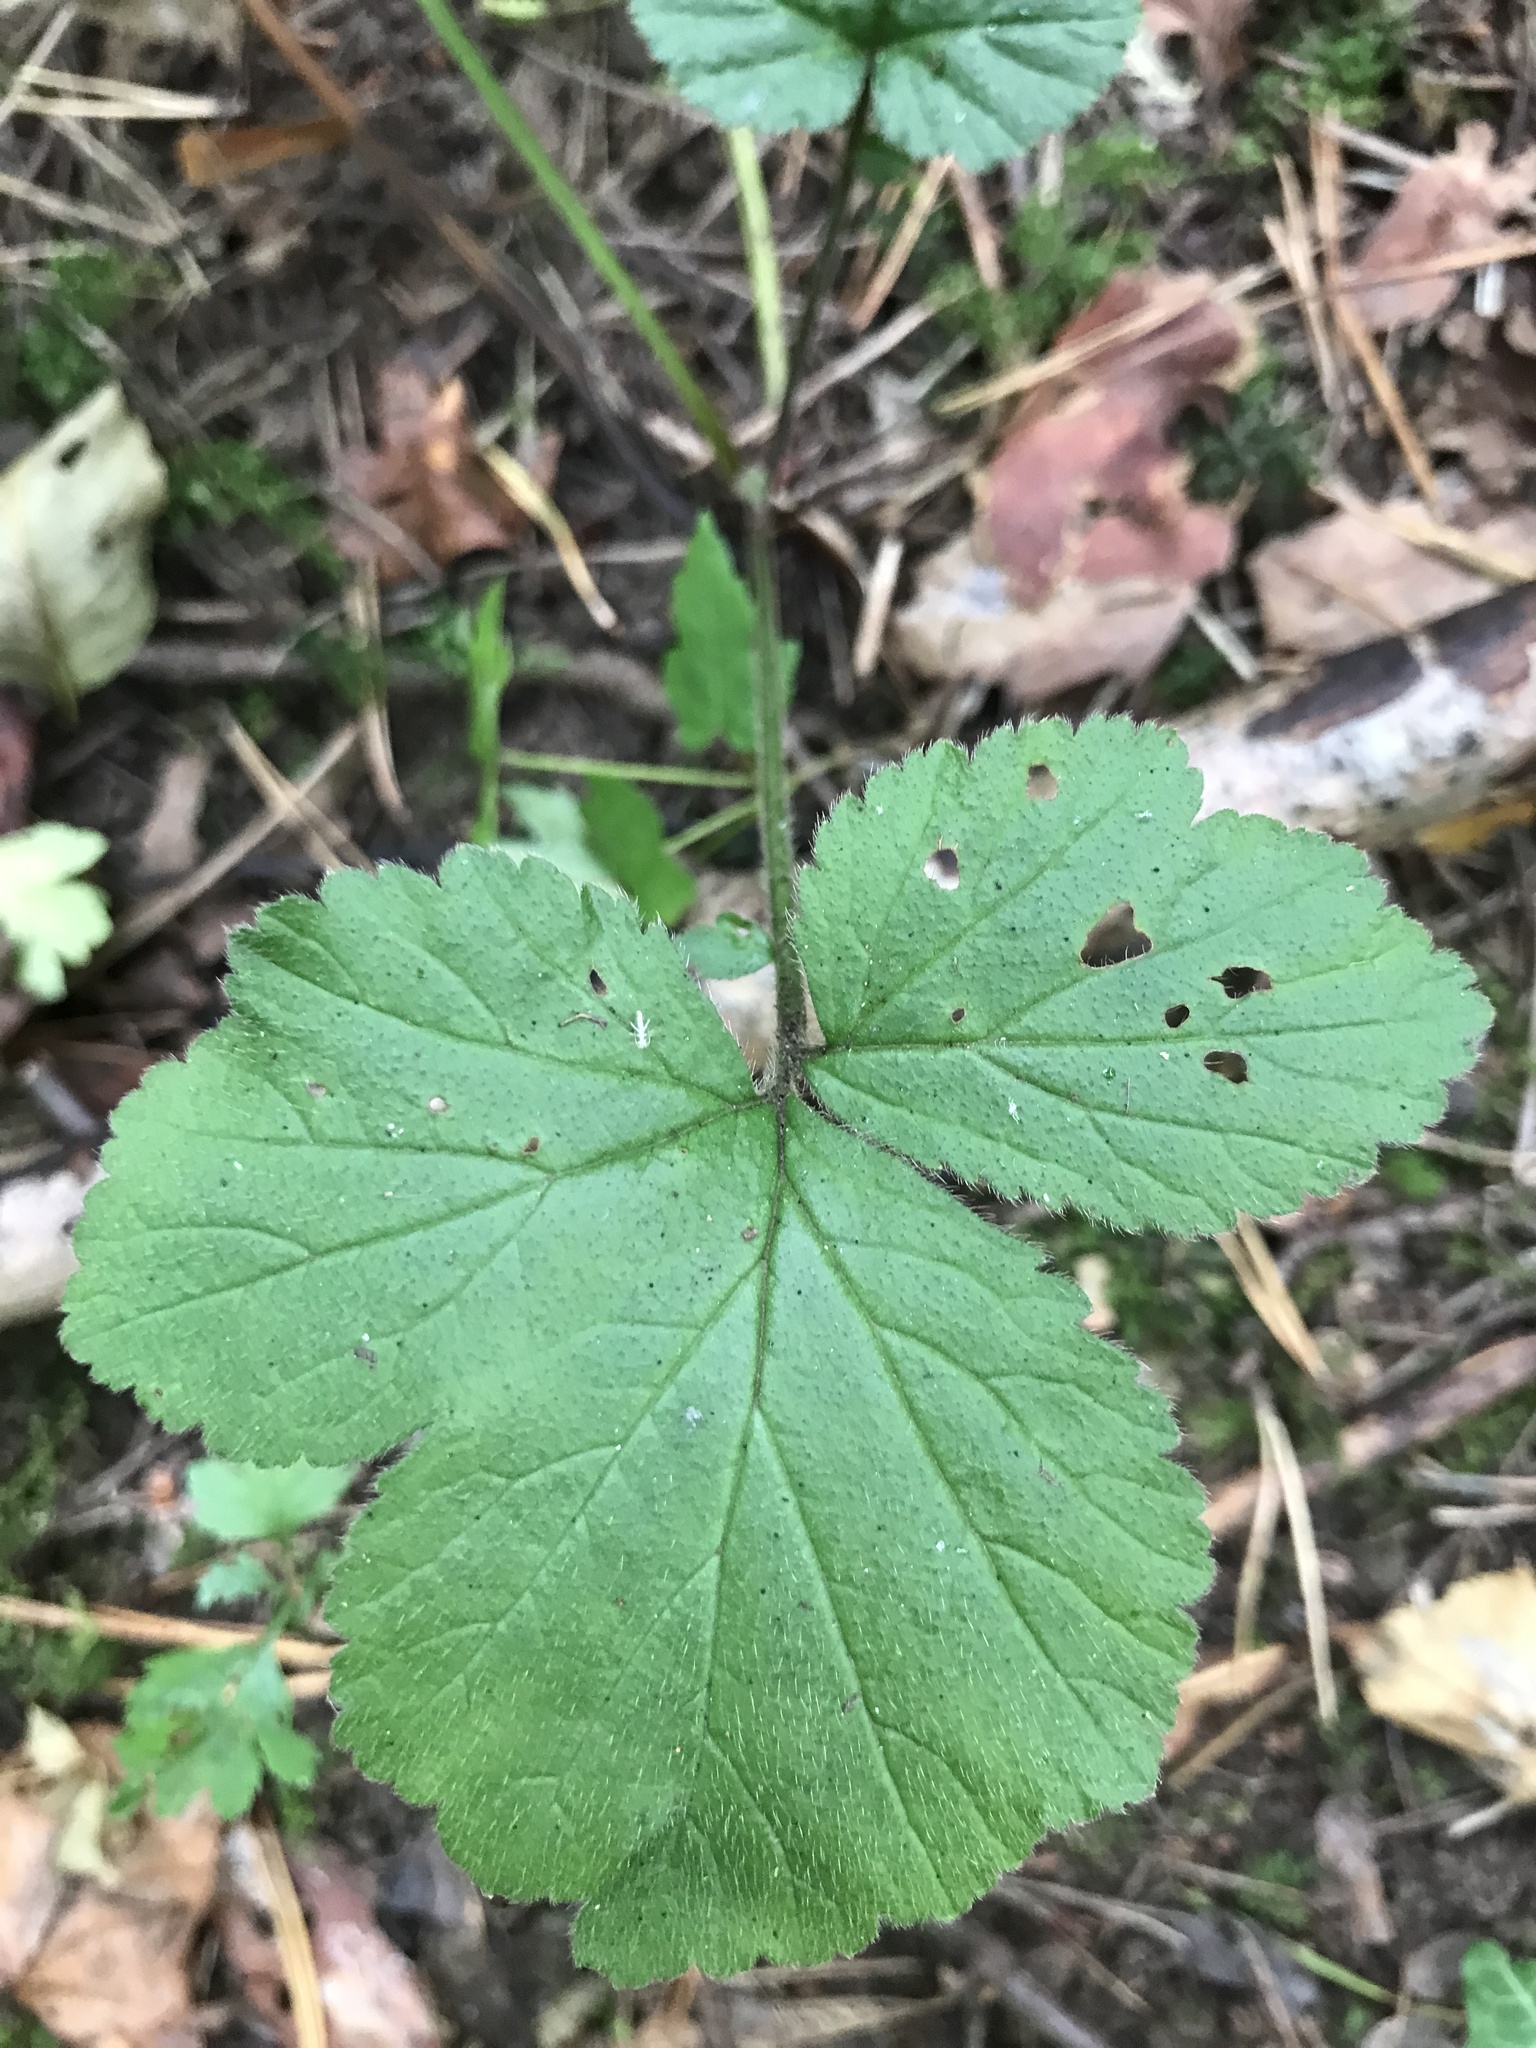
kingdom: Plantae
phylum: Tracheophyta
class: Magnoliopsida
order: Rosales
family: Rosaceae
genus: Geum
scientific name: Geum urbanum
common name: Wood avens
